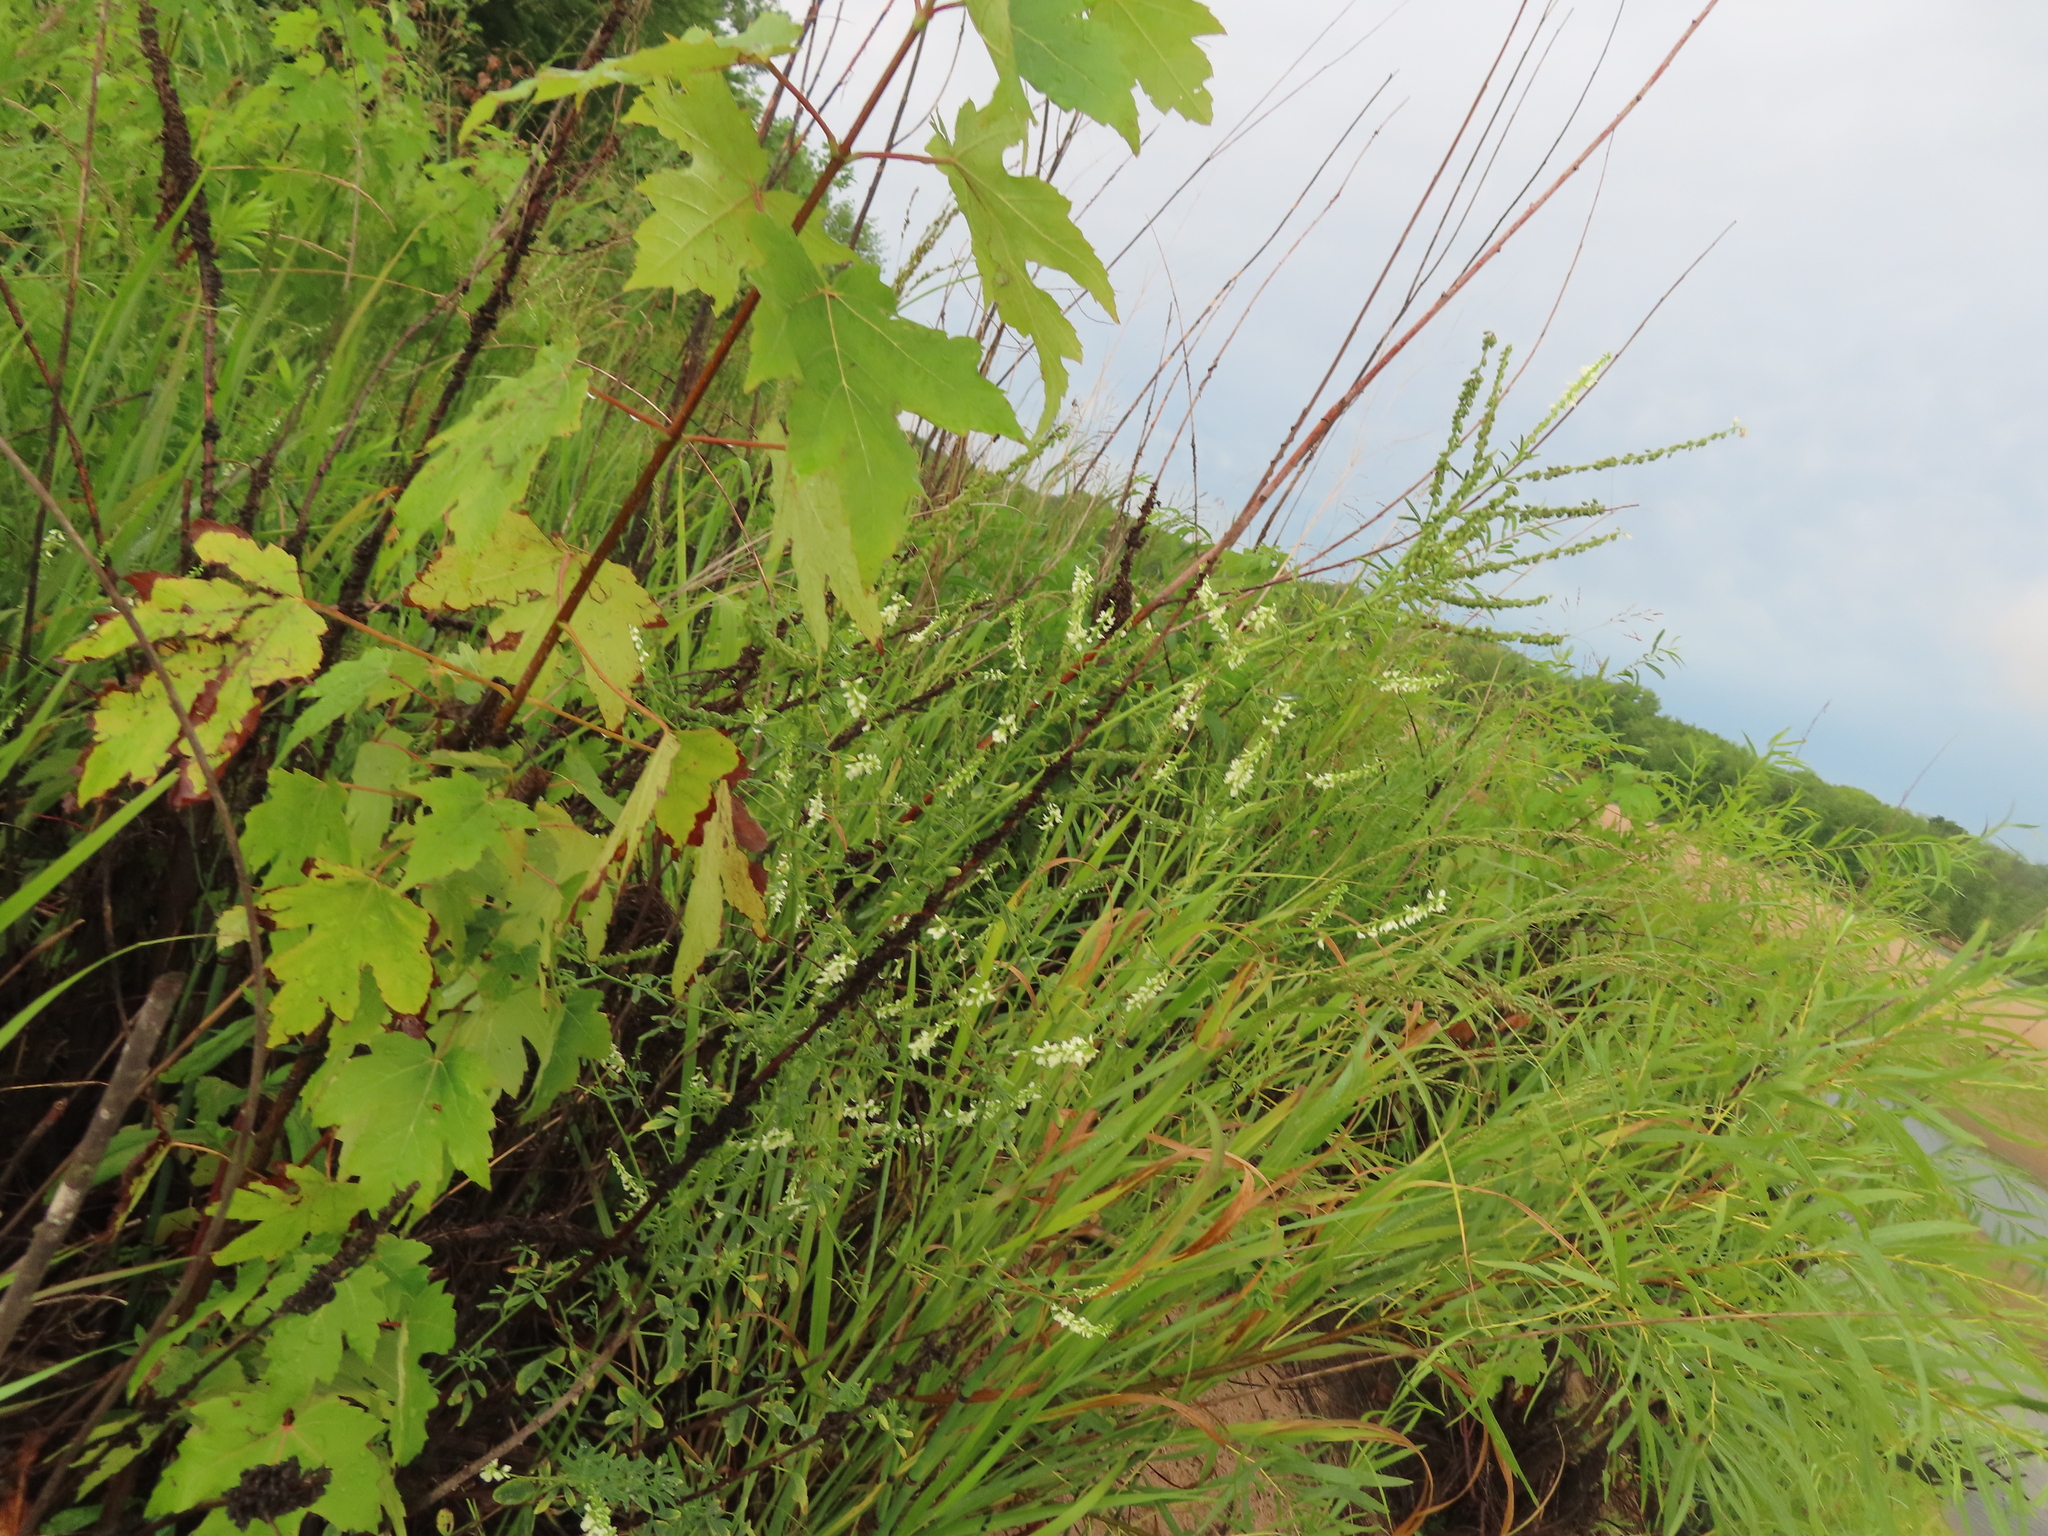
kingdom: Plantae
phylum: Tracheophyta
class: Magnoliopsida
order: Fabales
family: Fabaceae
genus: Melilotus
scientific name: Melilotus albus
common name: White melilot
